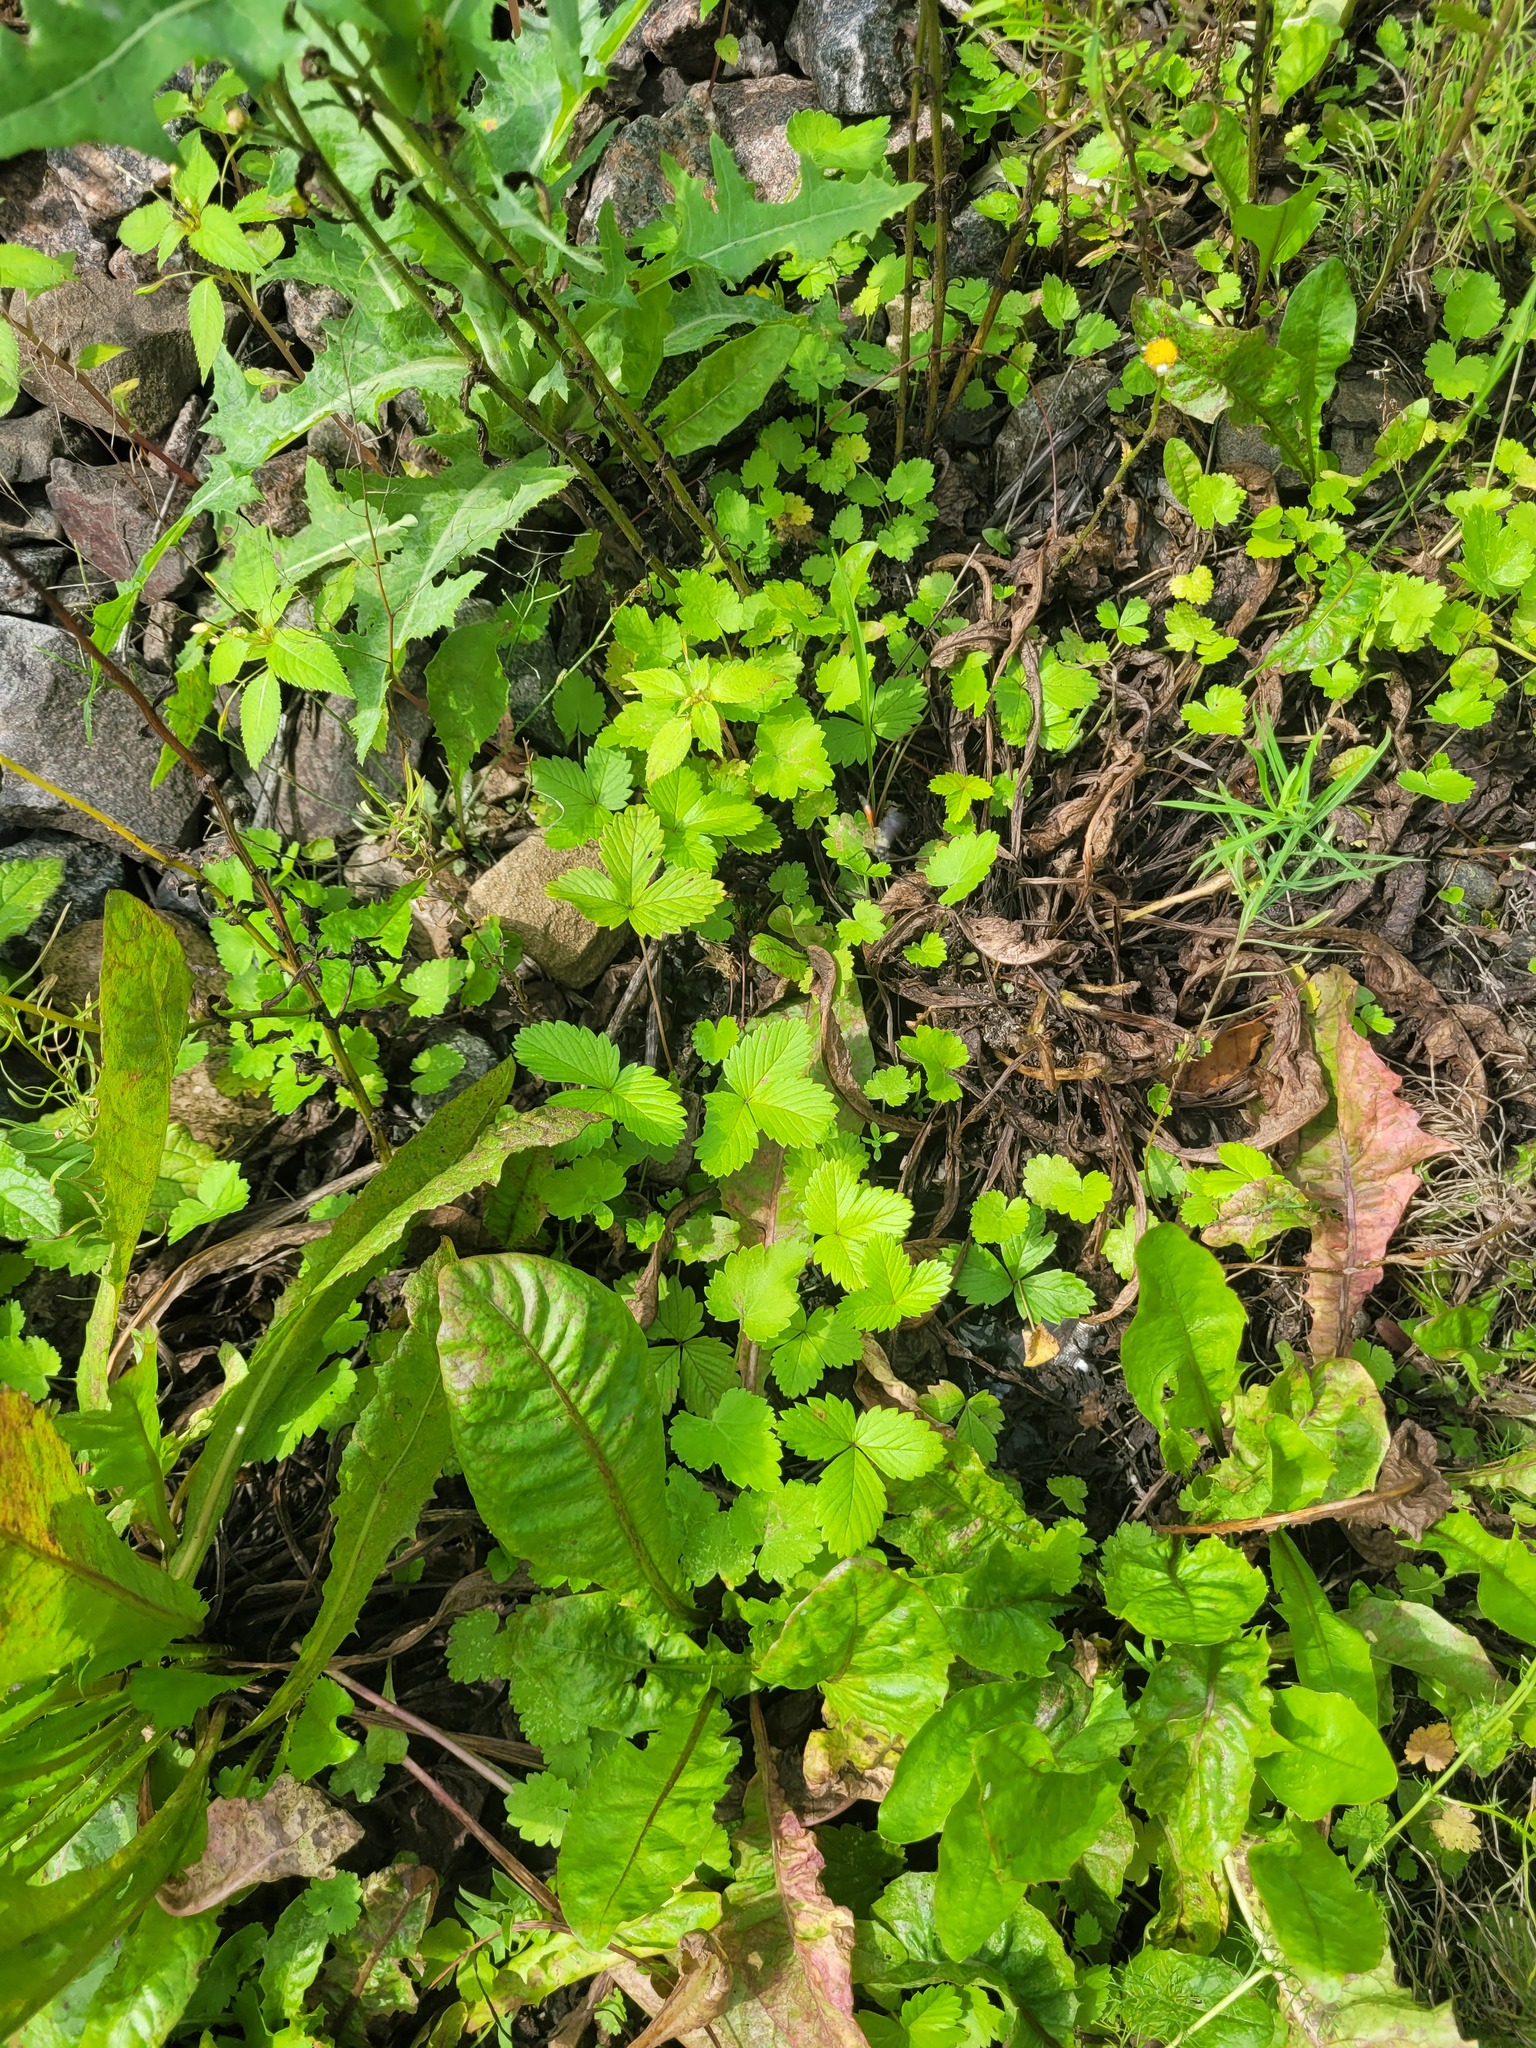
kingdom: Plantae
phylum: Tracheophyta
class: Magnoliopsida
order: Rosales
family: Rosaceae
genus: Fragaria
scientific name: Fragaria vesca
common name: Wild strawberry
